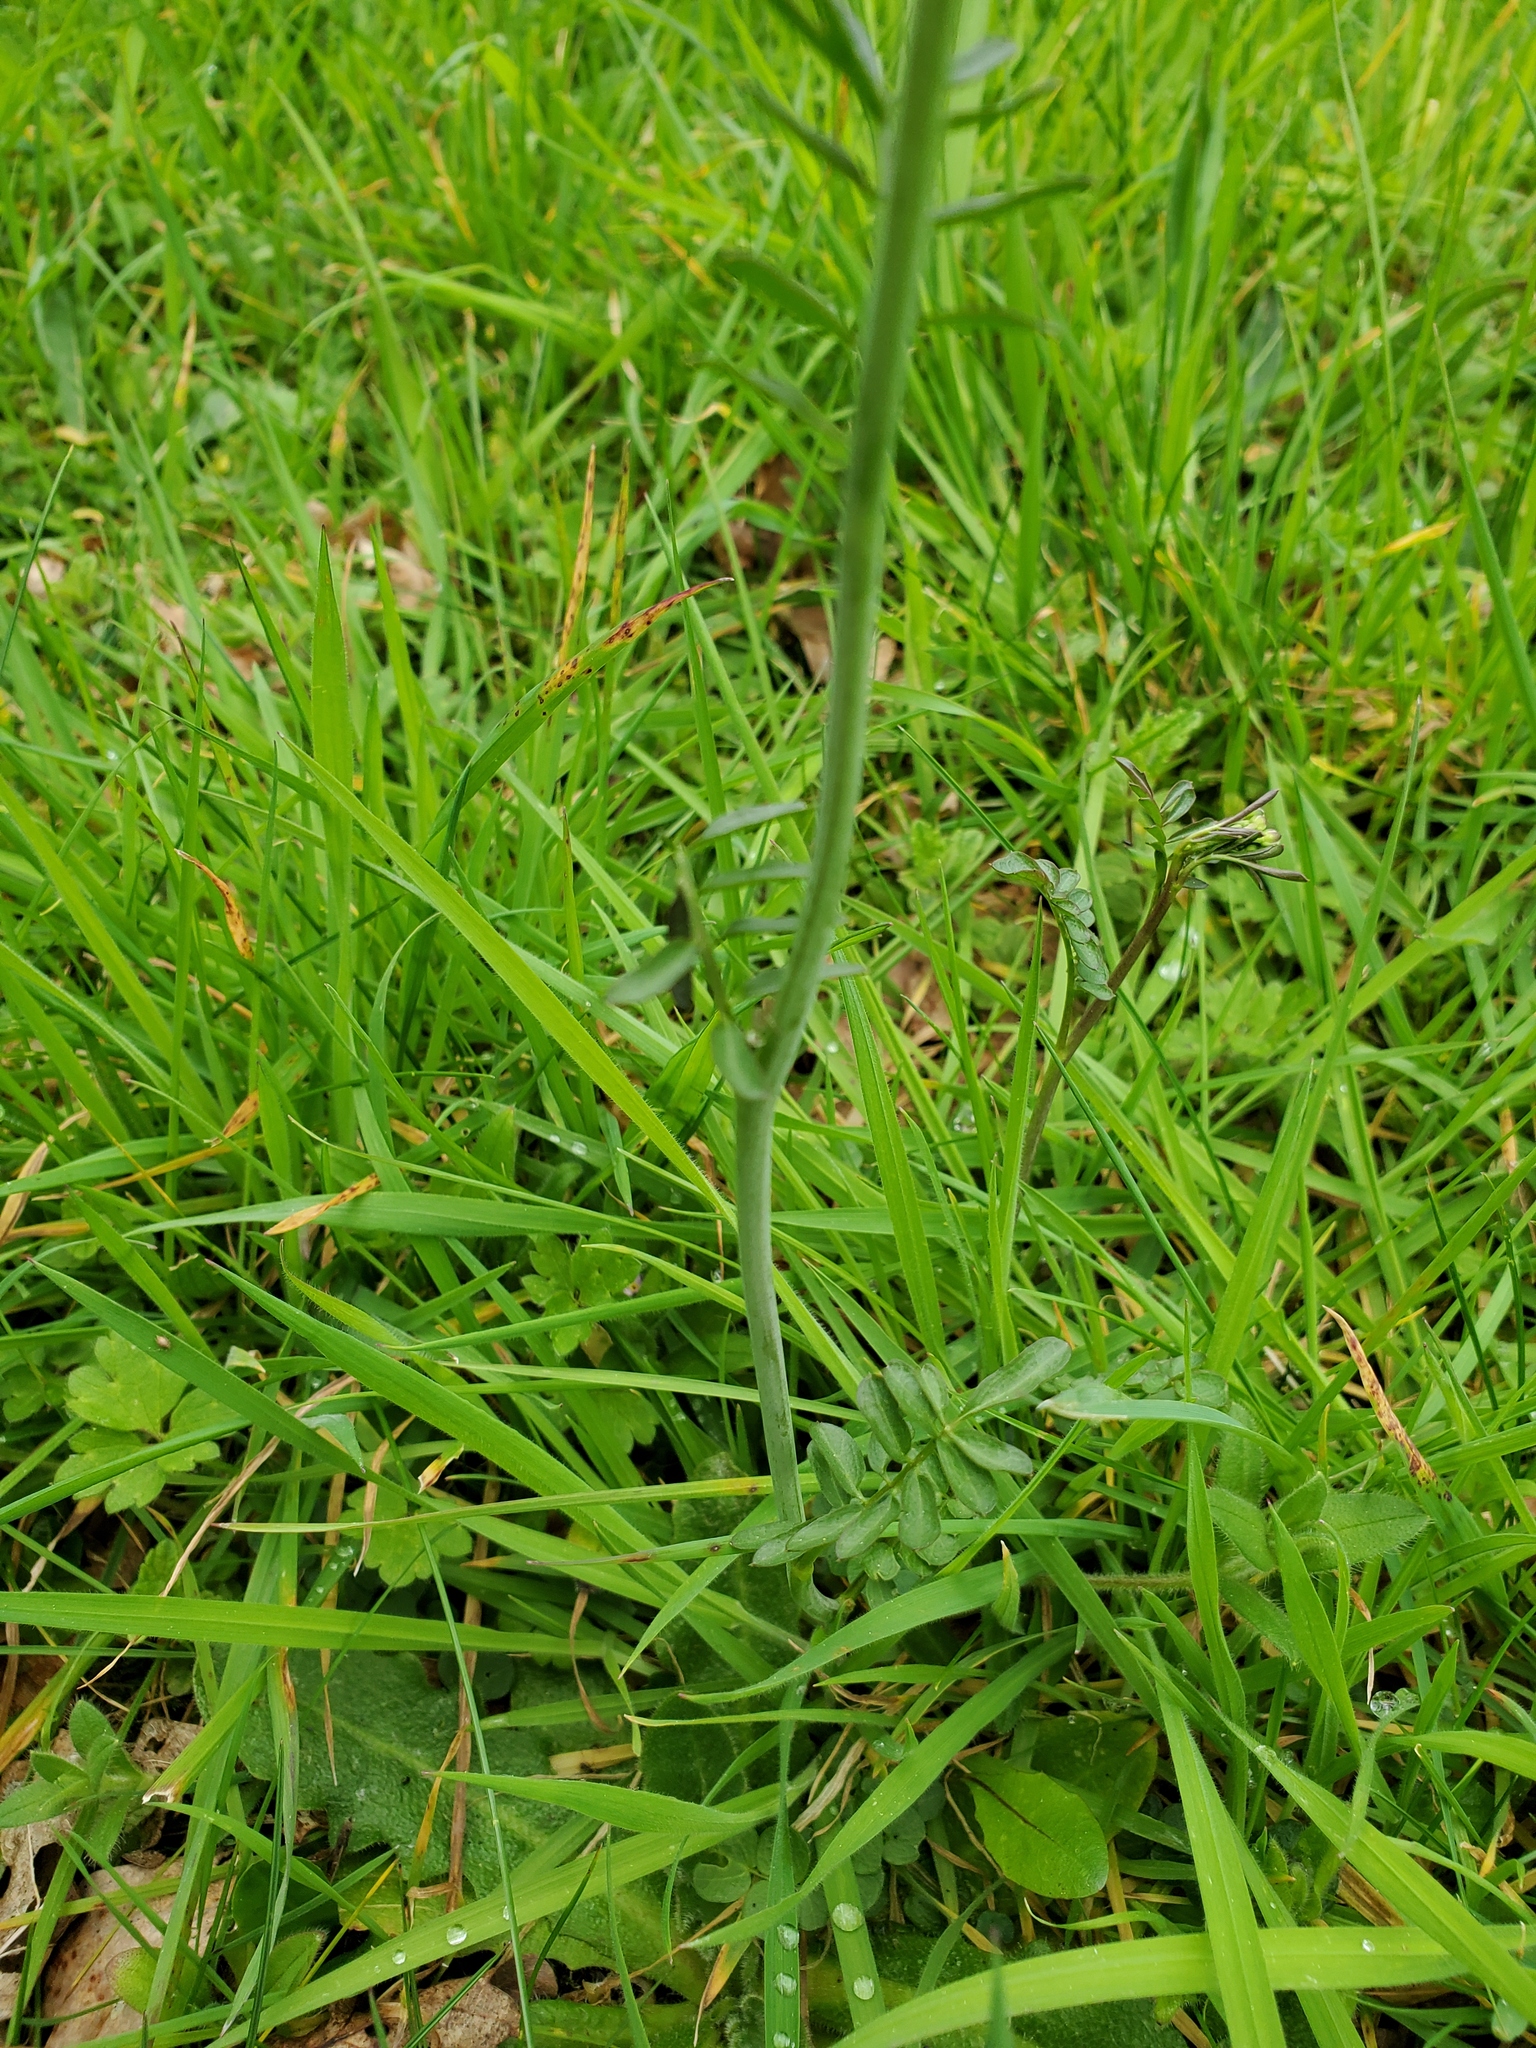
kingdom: Plantae
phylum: Tracheophyta
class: Magnoliopsida
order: Brassicales
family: Brassicaceae
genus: Cardamine
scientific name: Cardamine pratensis
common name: Cuckoo flower
